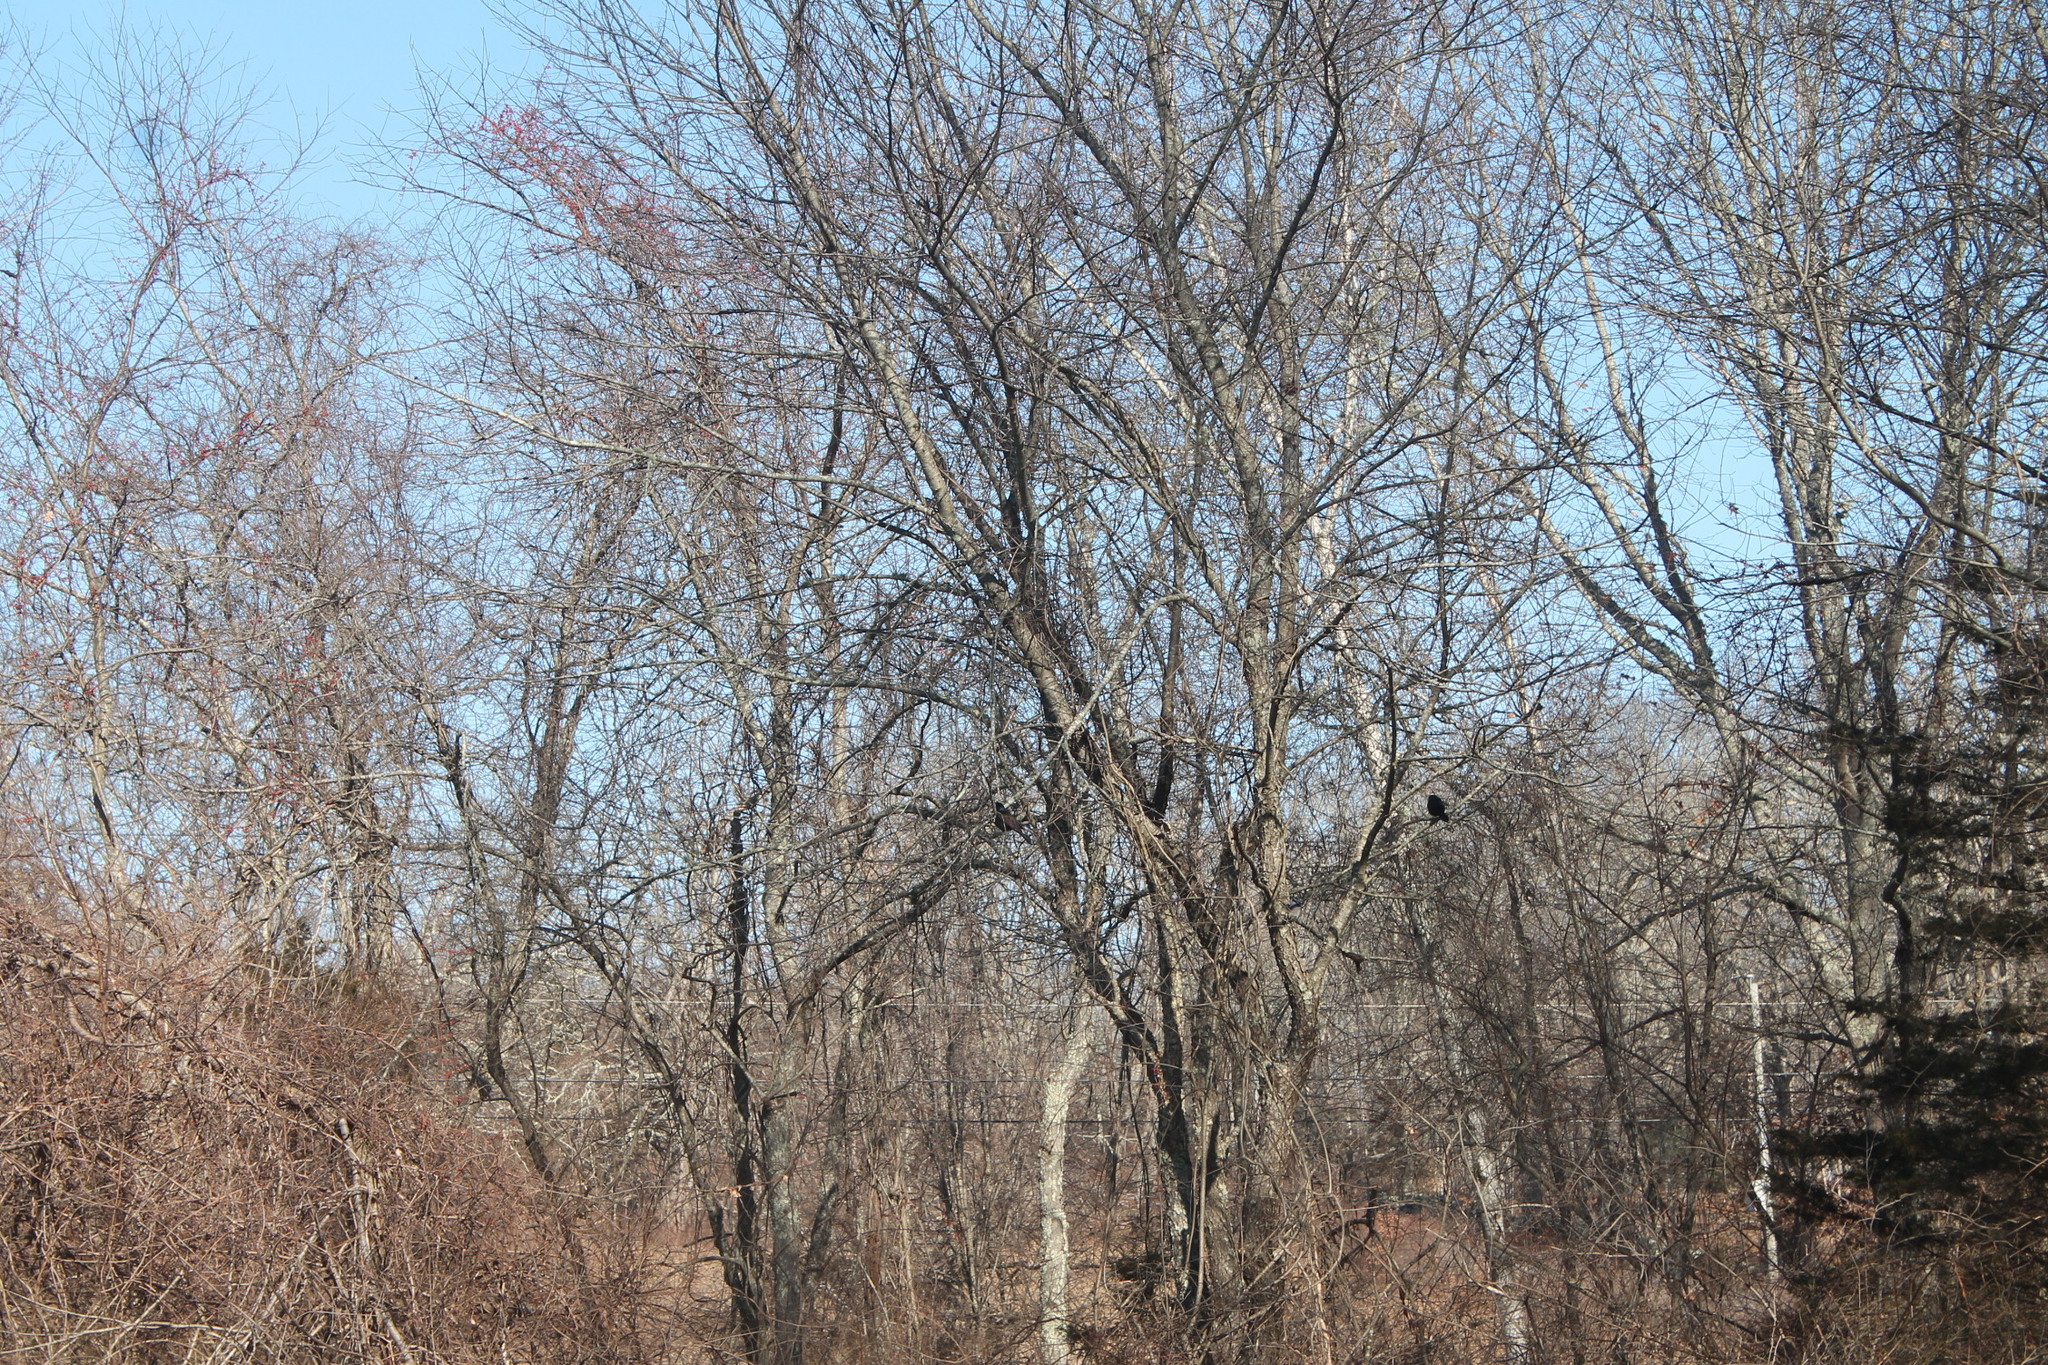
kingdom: Animalia
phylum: Chordata
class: Aves
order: Passeriformes
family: Icteridae
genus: Quiscalus
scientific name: Quiscalus quiscula
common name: Common grackle
